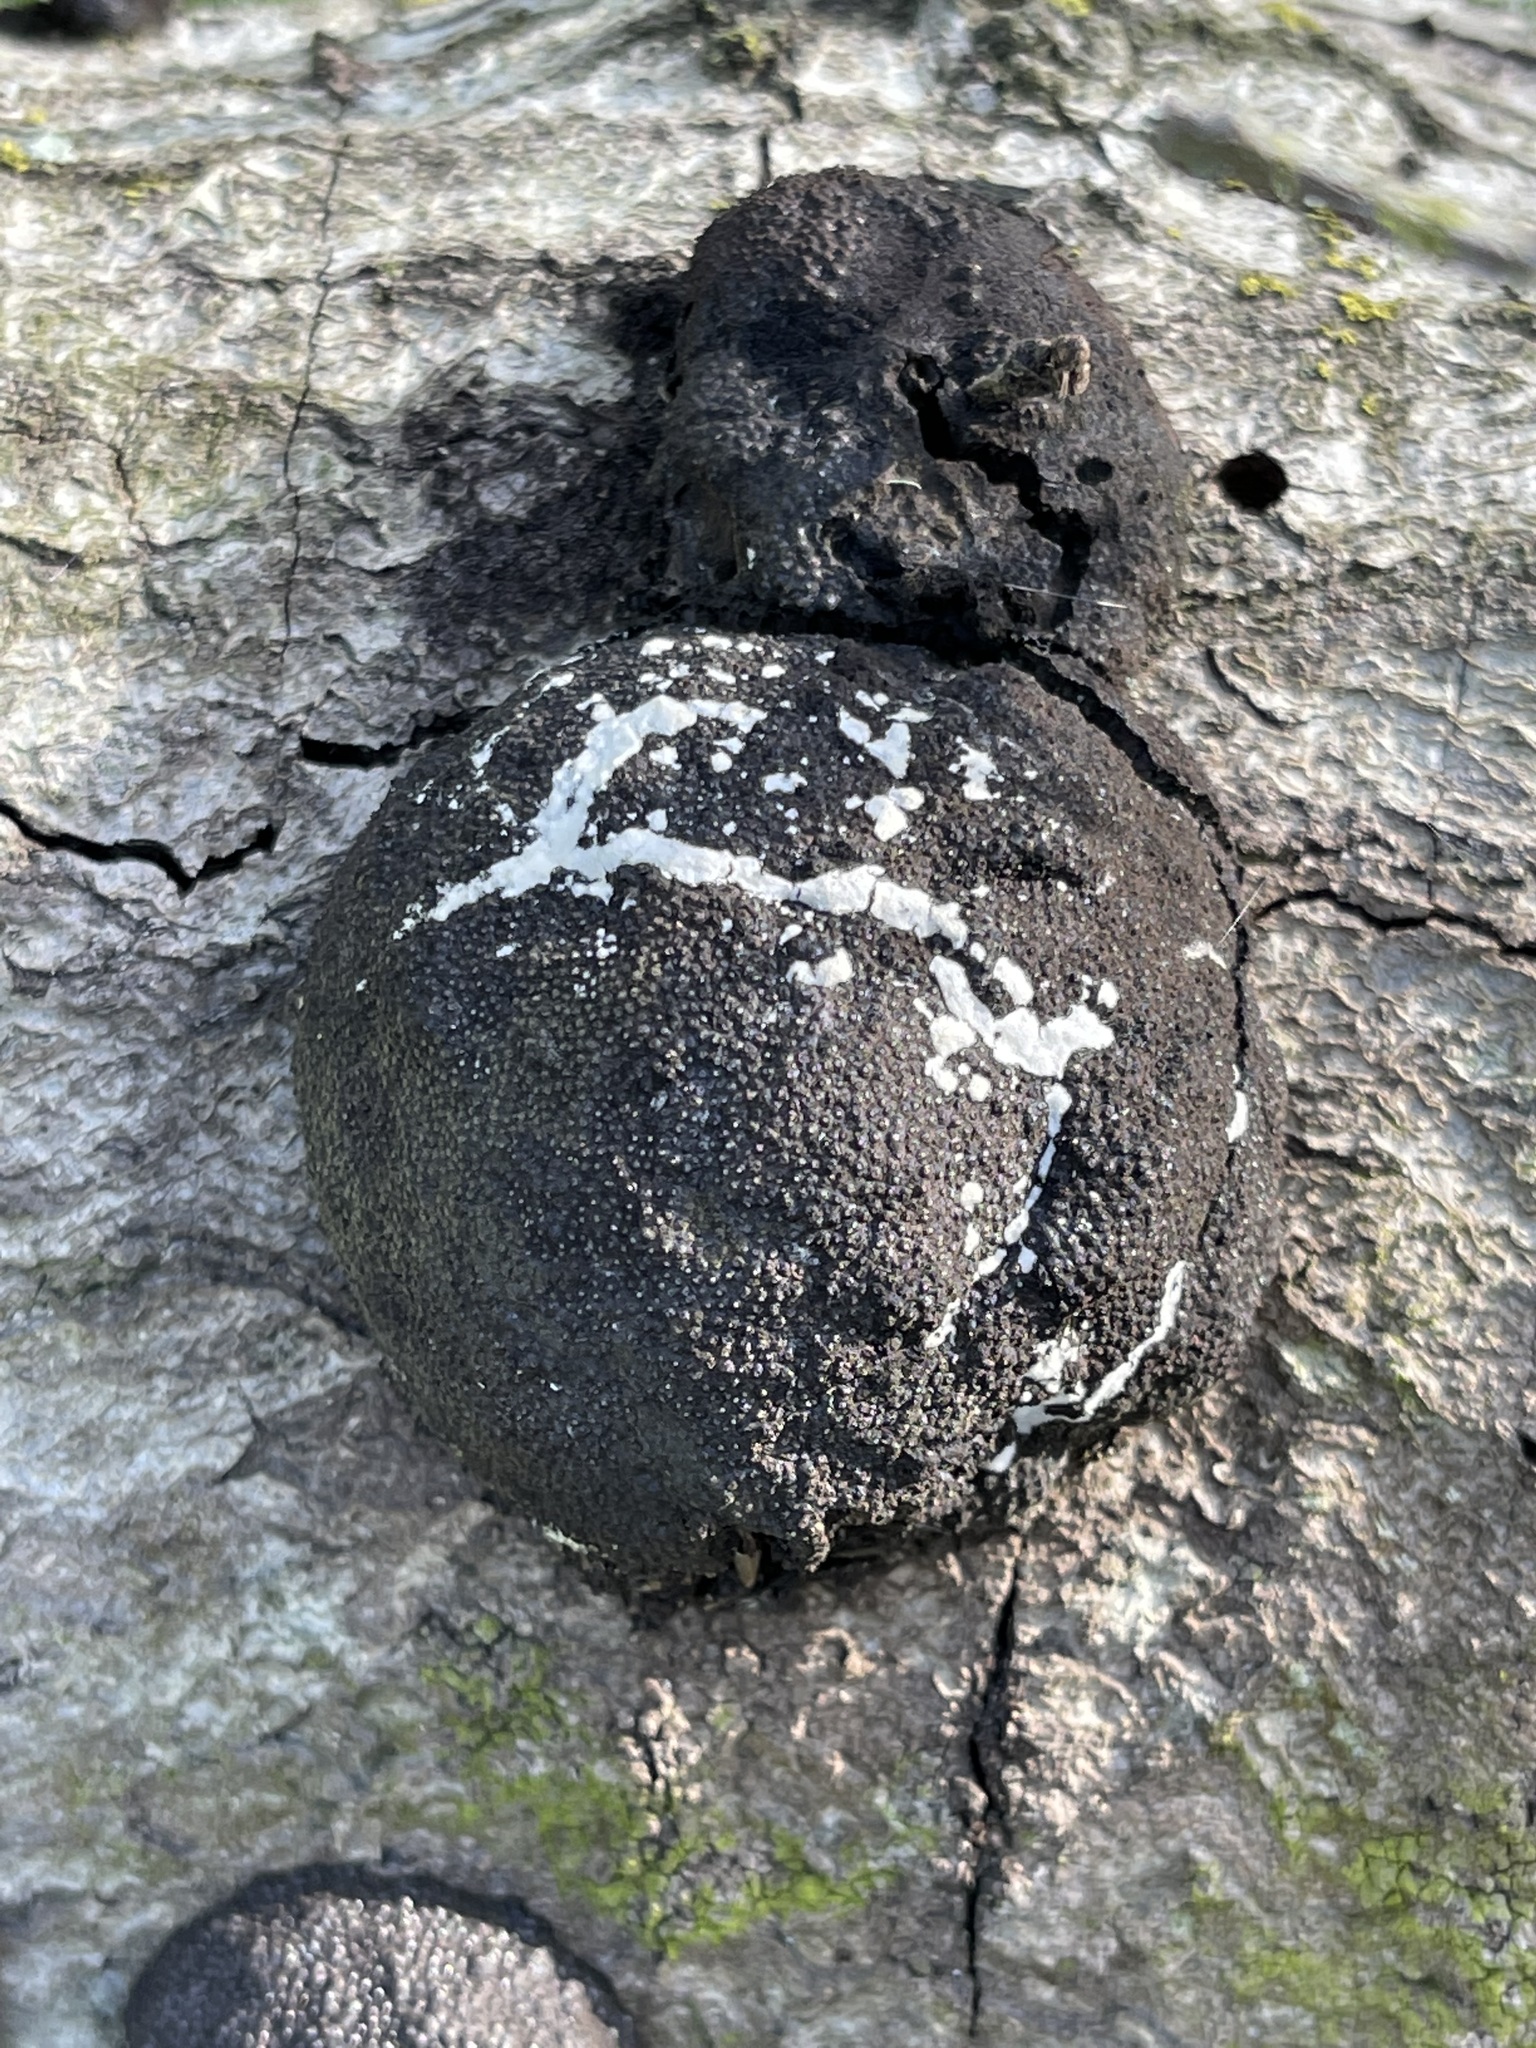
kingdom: Fungi
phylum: Ascomycota
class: Sordariomycetes
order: Xylariales
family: Hypoxylaceae
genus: Annulohypoxylon
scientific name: Annulohypoxylon thouarsianum
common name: Cramp balls
